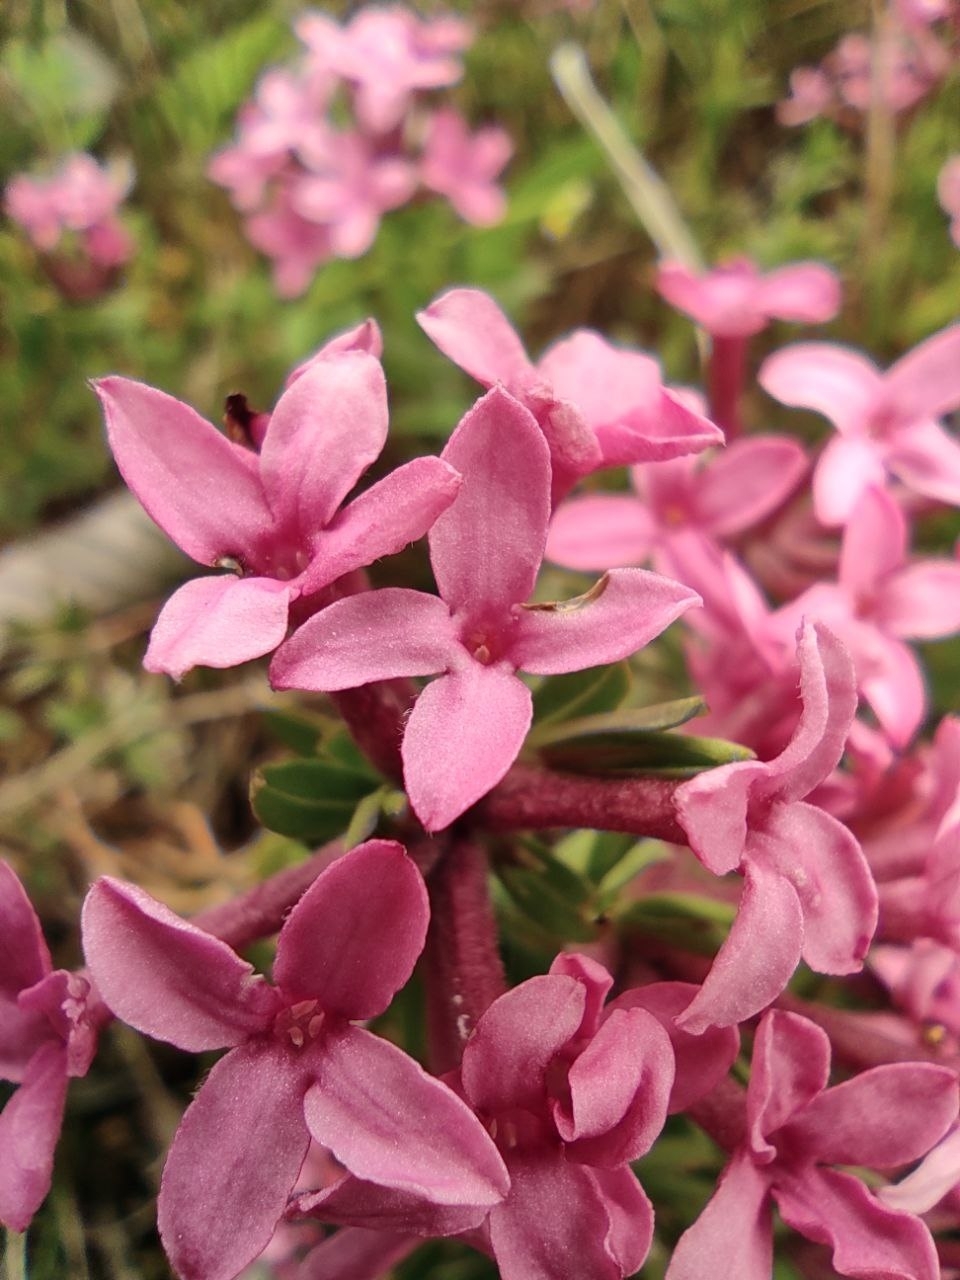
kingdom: Plantae
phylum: Tracheophyta
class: Magnoliopsida
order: Malvales
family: Thymelaeaceae
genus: Daphne
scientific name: Daphne cneorum
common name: Garland-flower
